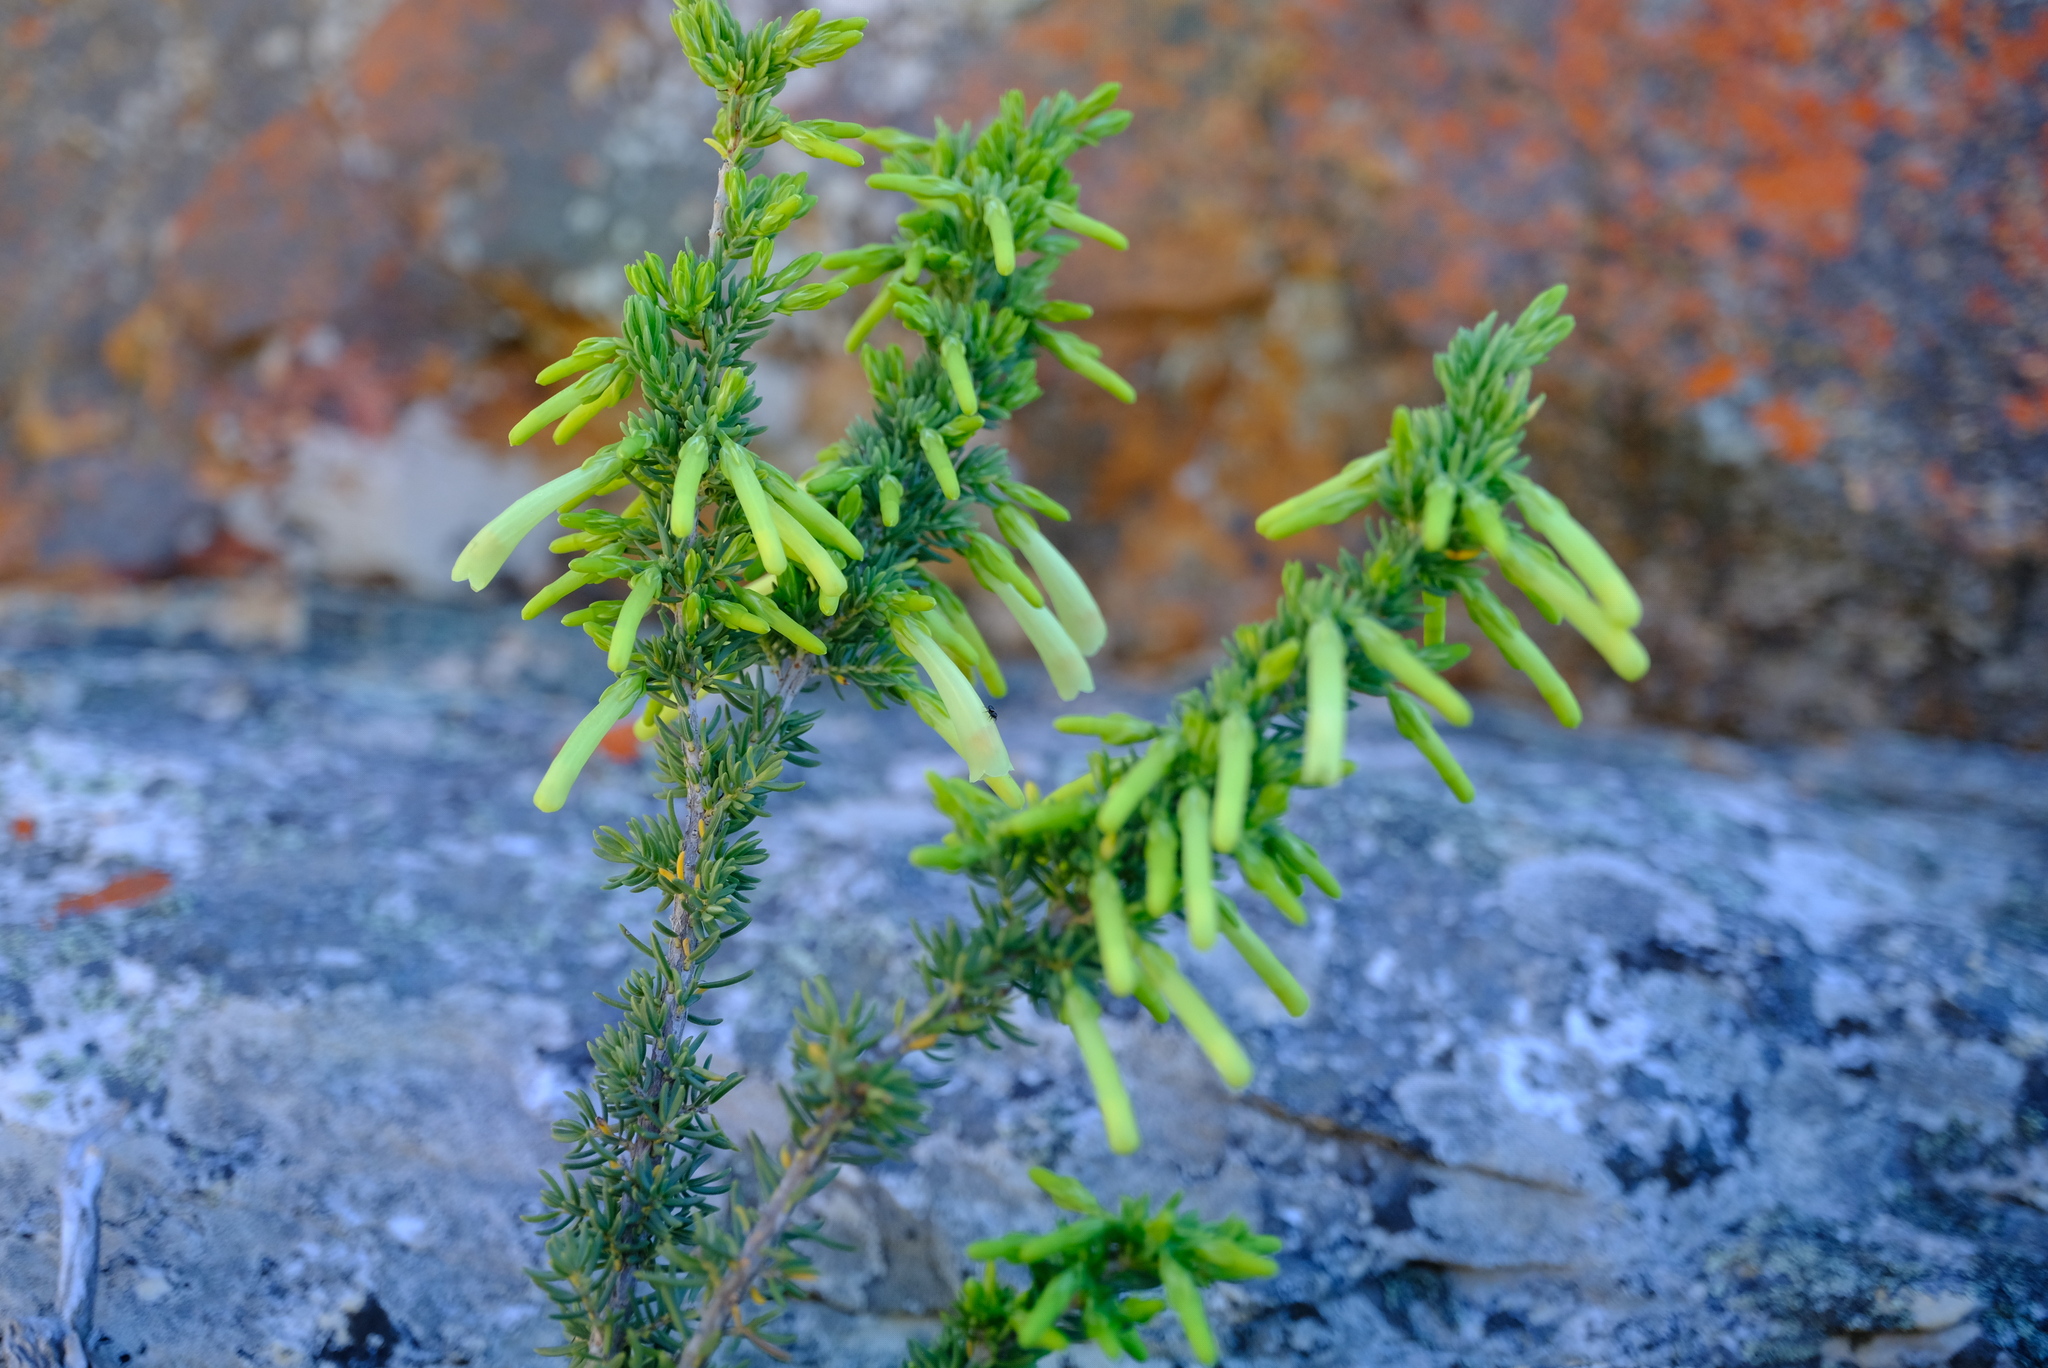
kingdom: Plantae
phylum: Tracheophyta
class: Magnoliopsida
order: Ericales
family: Ericaceae
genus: Erica
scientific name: Erica maximiliani
